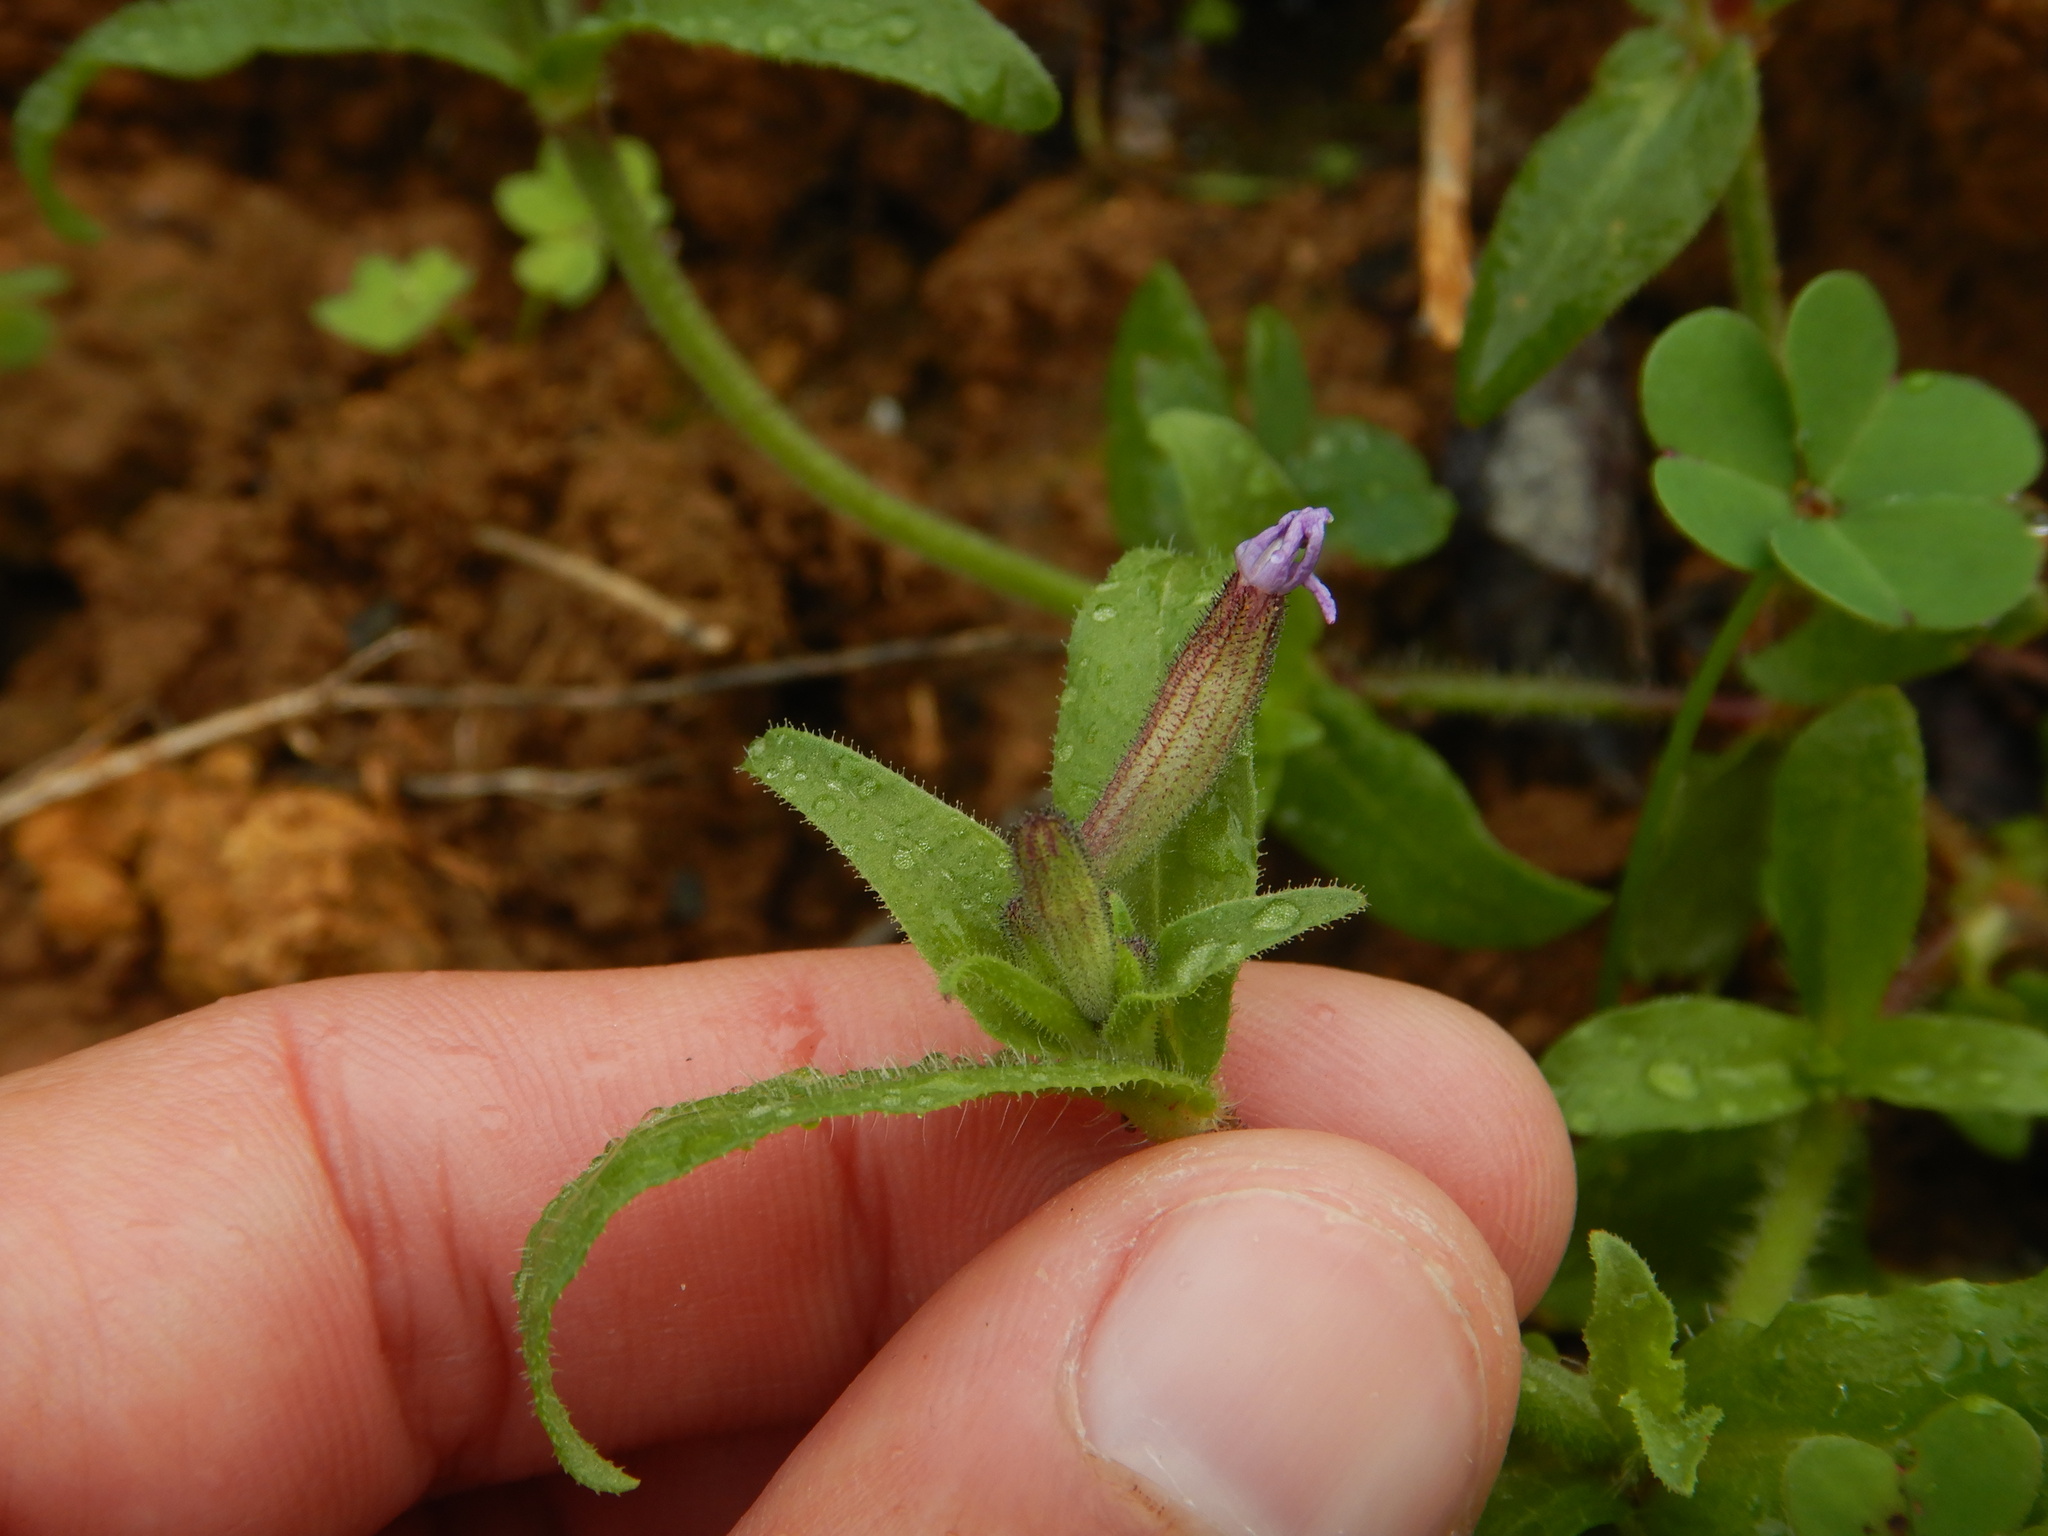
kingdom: Plantae
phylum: Tracheophyta
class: Magnoliopsida
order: Caryophyllales
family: Caryophyllaceae
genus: Silene
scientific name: Silene fuscata
